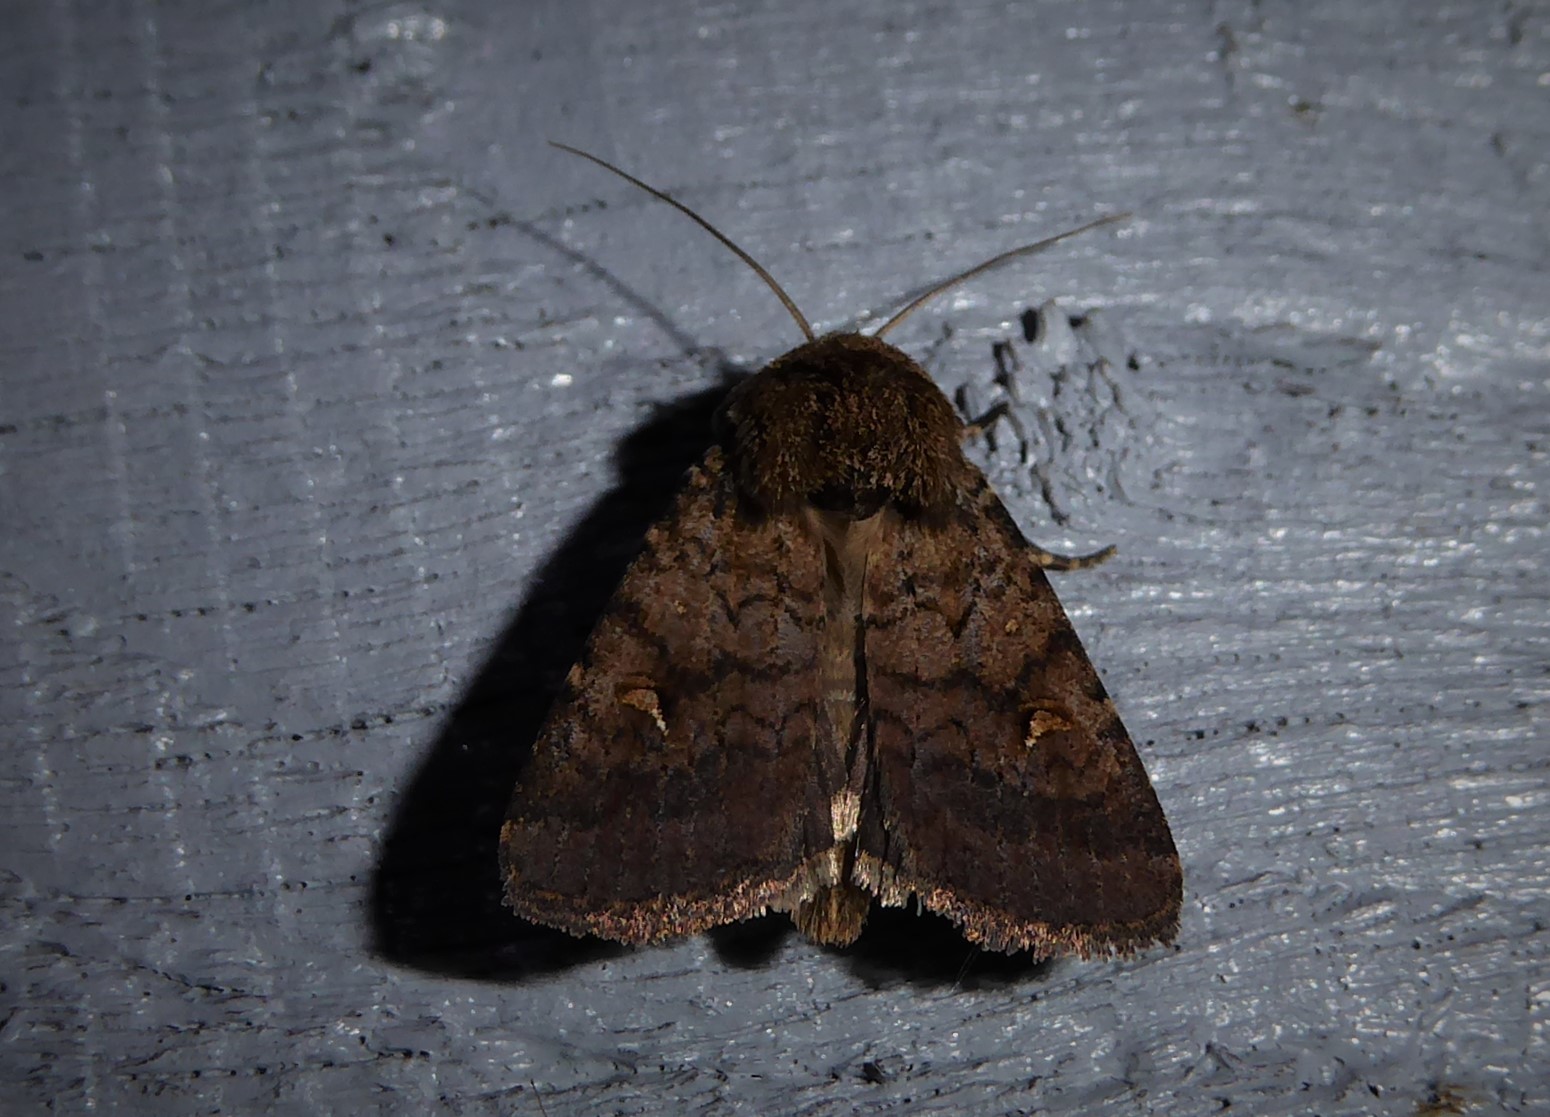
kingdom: Animalia
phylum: Arthropoda
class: Insecta
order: Lepidoptera
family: Noctuidae
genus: Proteuxoa
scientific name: Proteuxoa tetronycha
